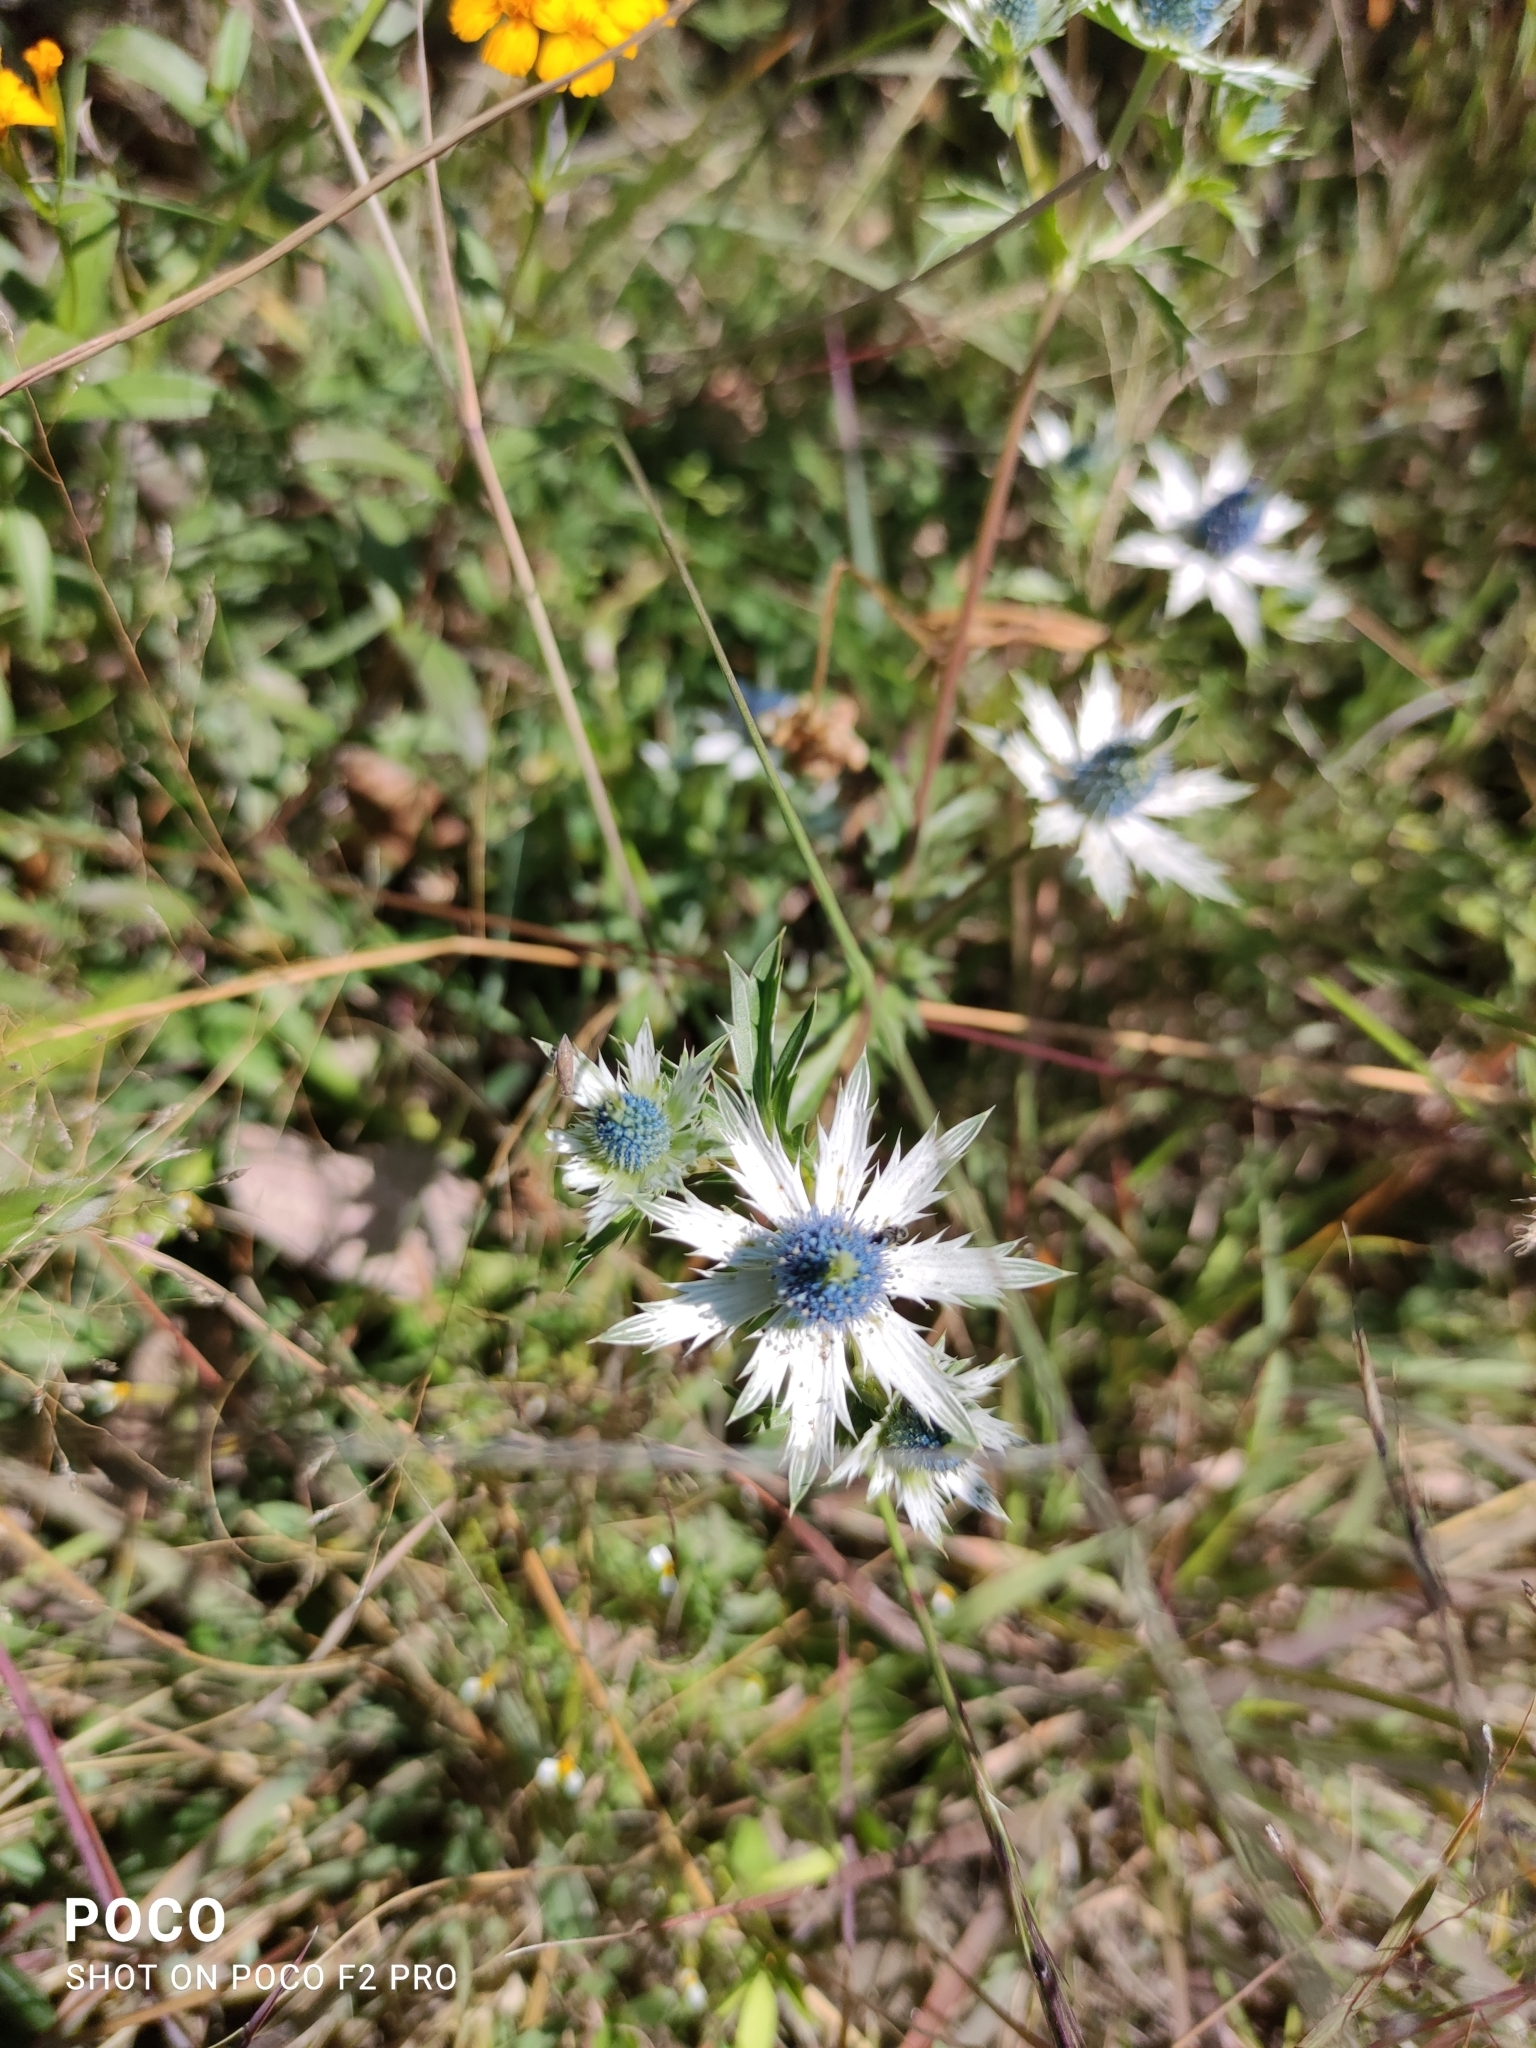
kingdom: Plantae
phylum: Tracheophyta
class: Magnoliopsida
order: Apiales
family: Apiaceae
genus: Eryngium
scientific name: Eryngium heterophyllum
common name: Mexican thistle
